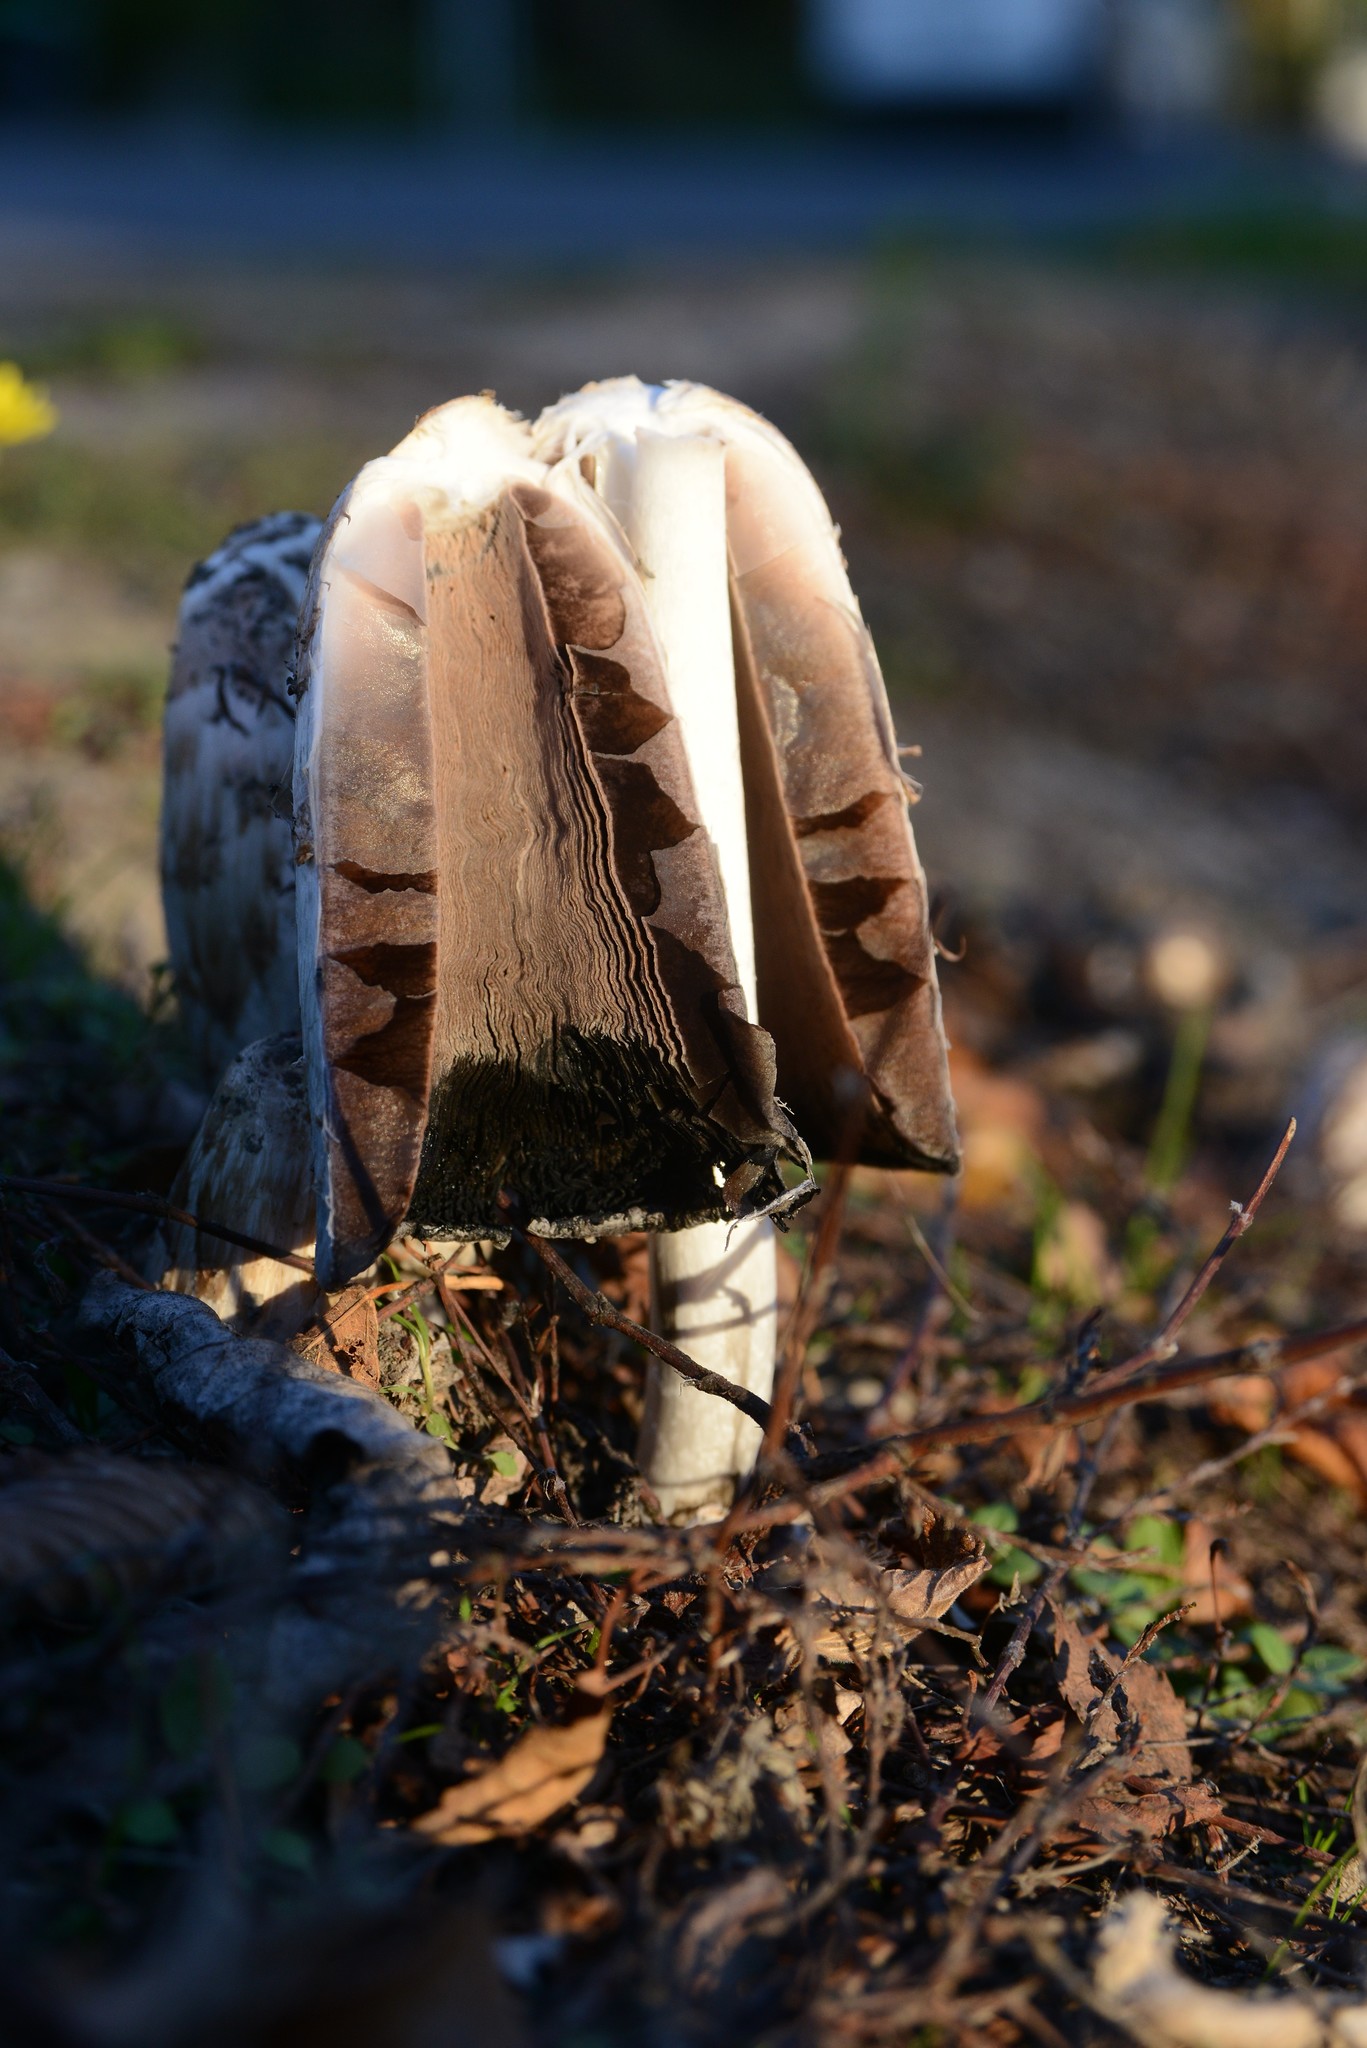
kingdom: Fungi
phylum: Basidiomycota
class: Agaricomycetes
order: Agaricales
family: Agaricaceae
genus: Coprinus
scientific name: Coprinus comatus
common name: Lawyer's wig
